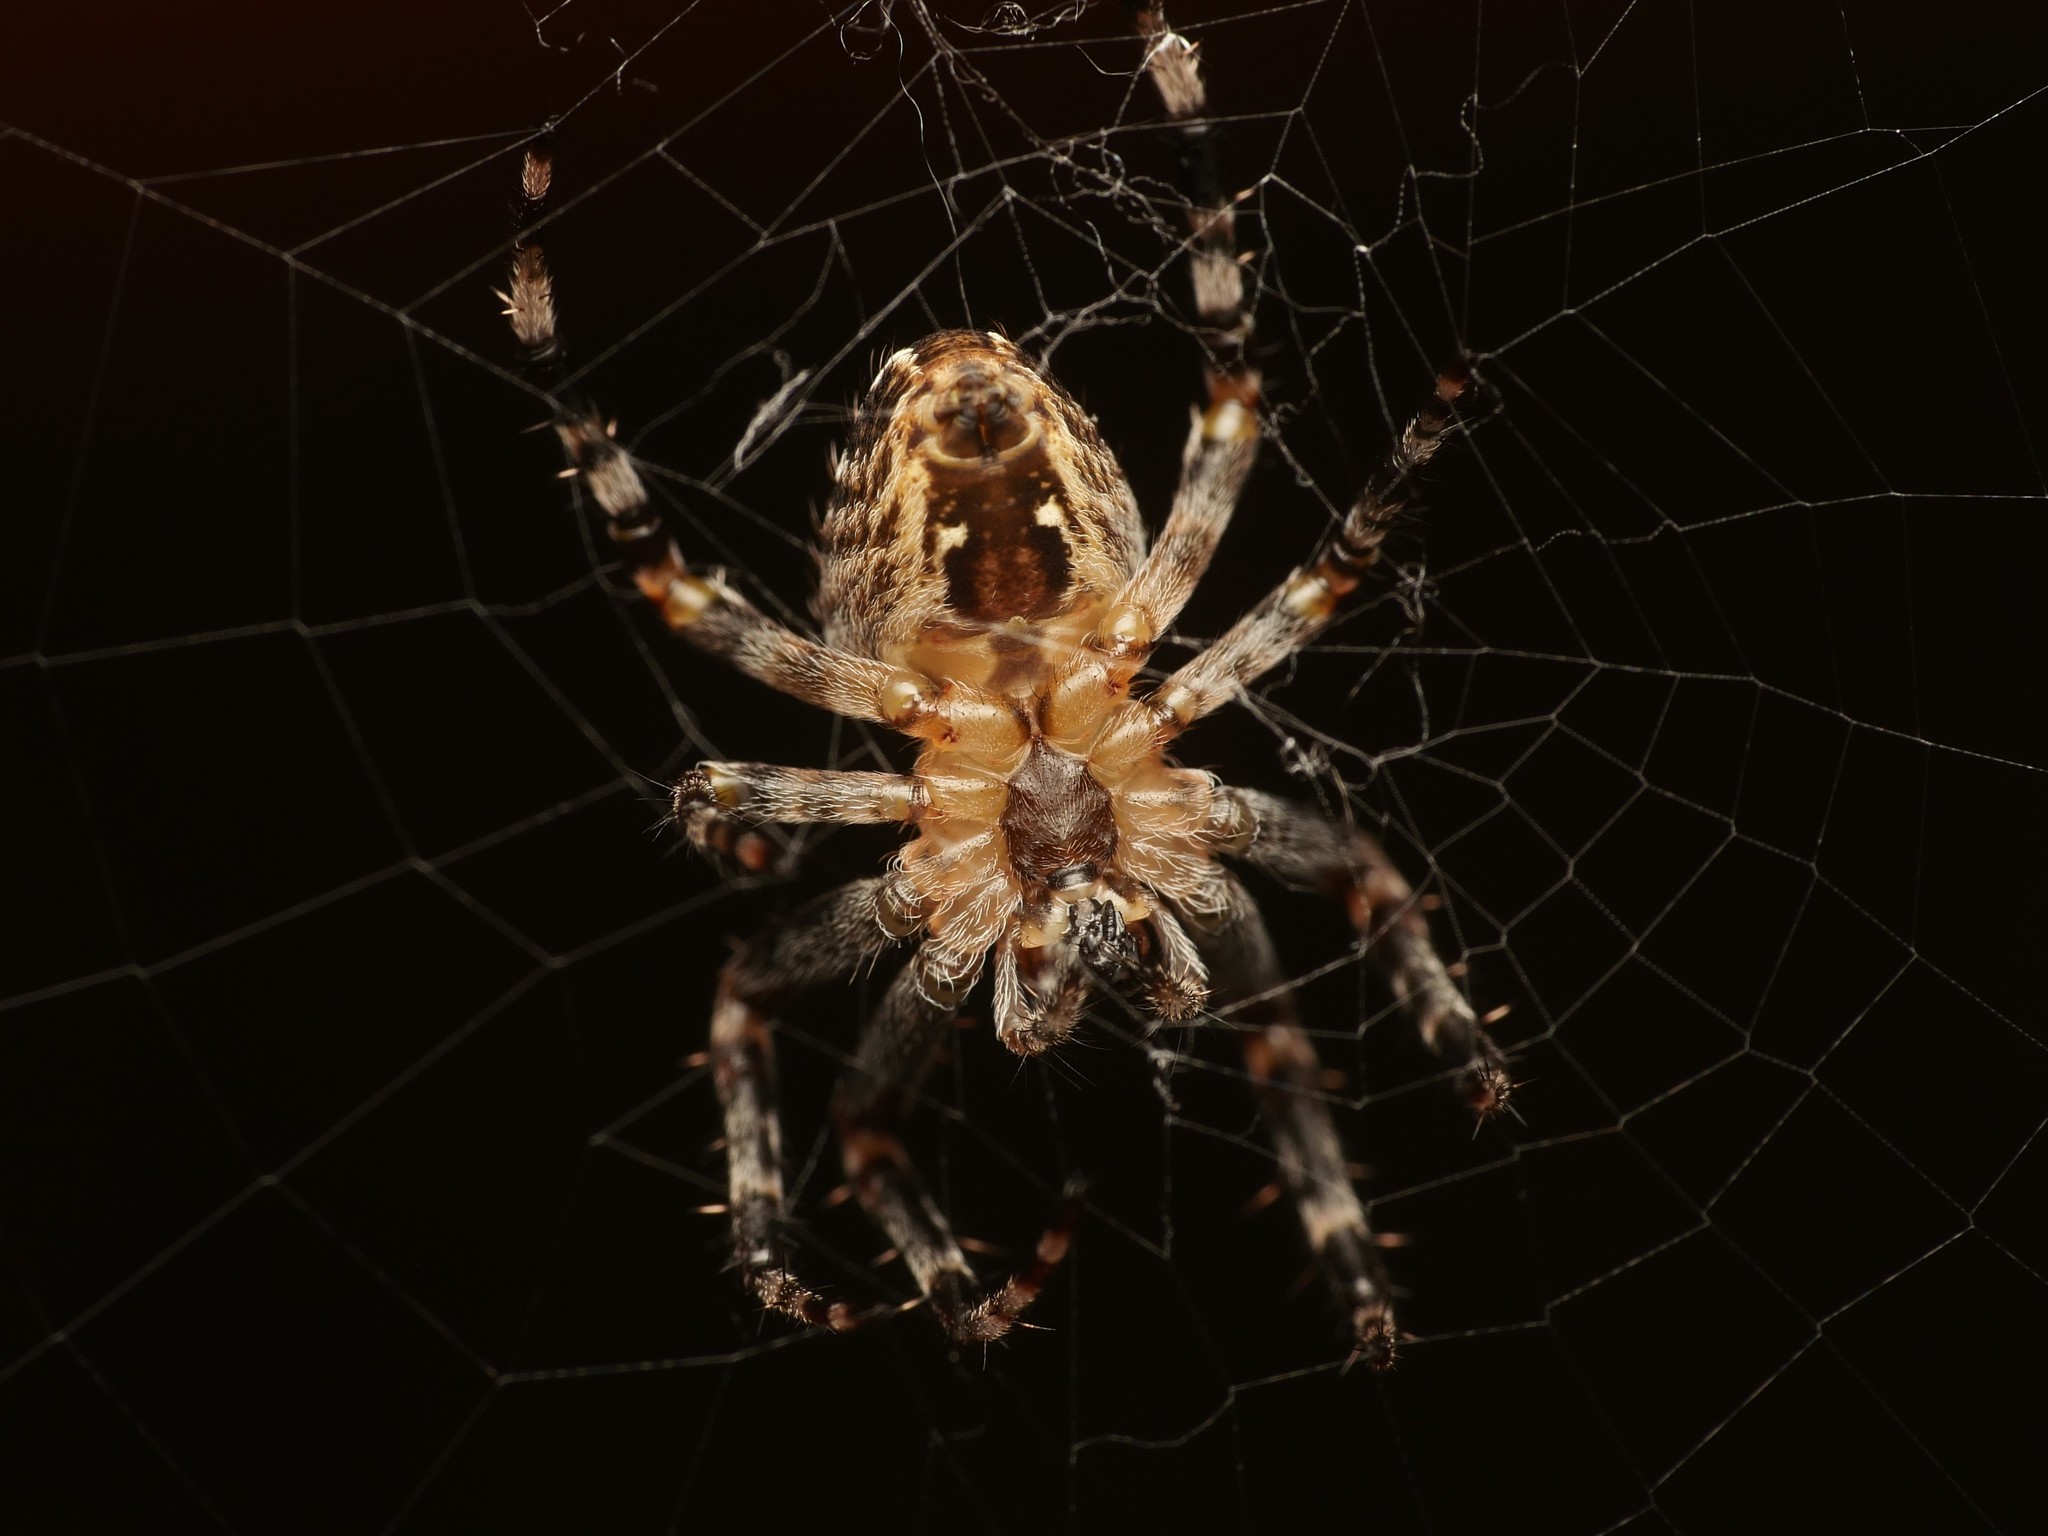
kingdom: Animalia
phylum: Arthropoda
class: Arachnida
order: Araneae
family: Araneidae
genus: Araneus
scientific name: Araneus diadematus
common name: Cross orbweaver
